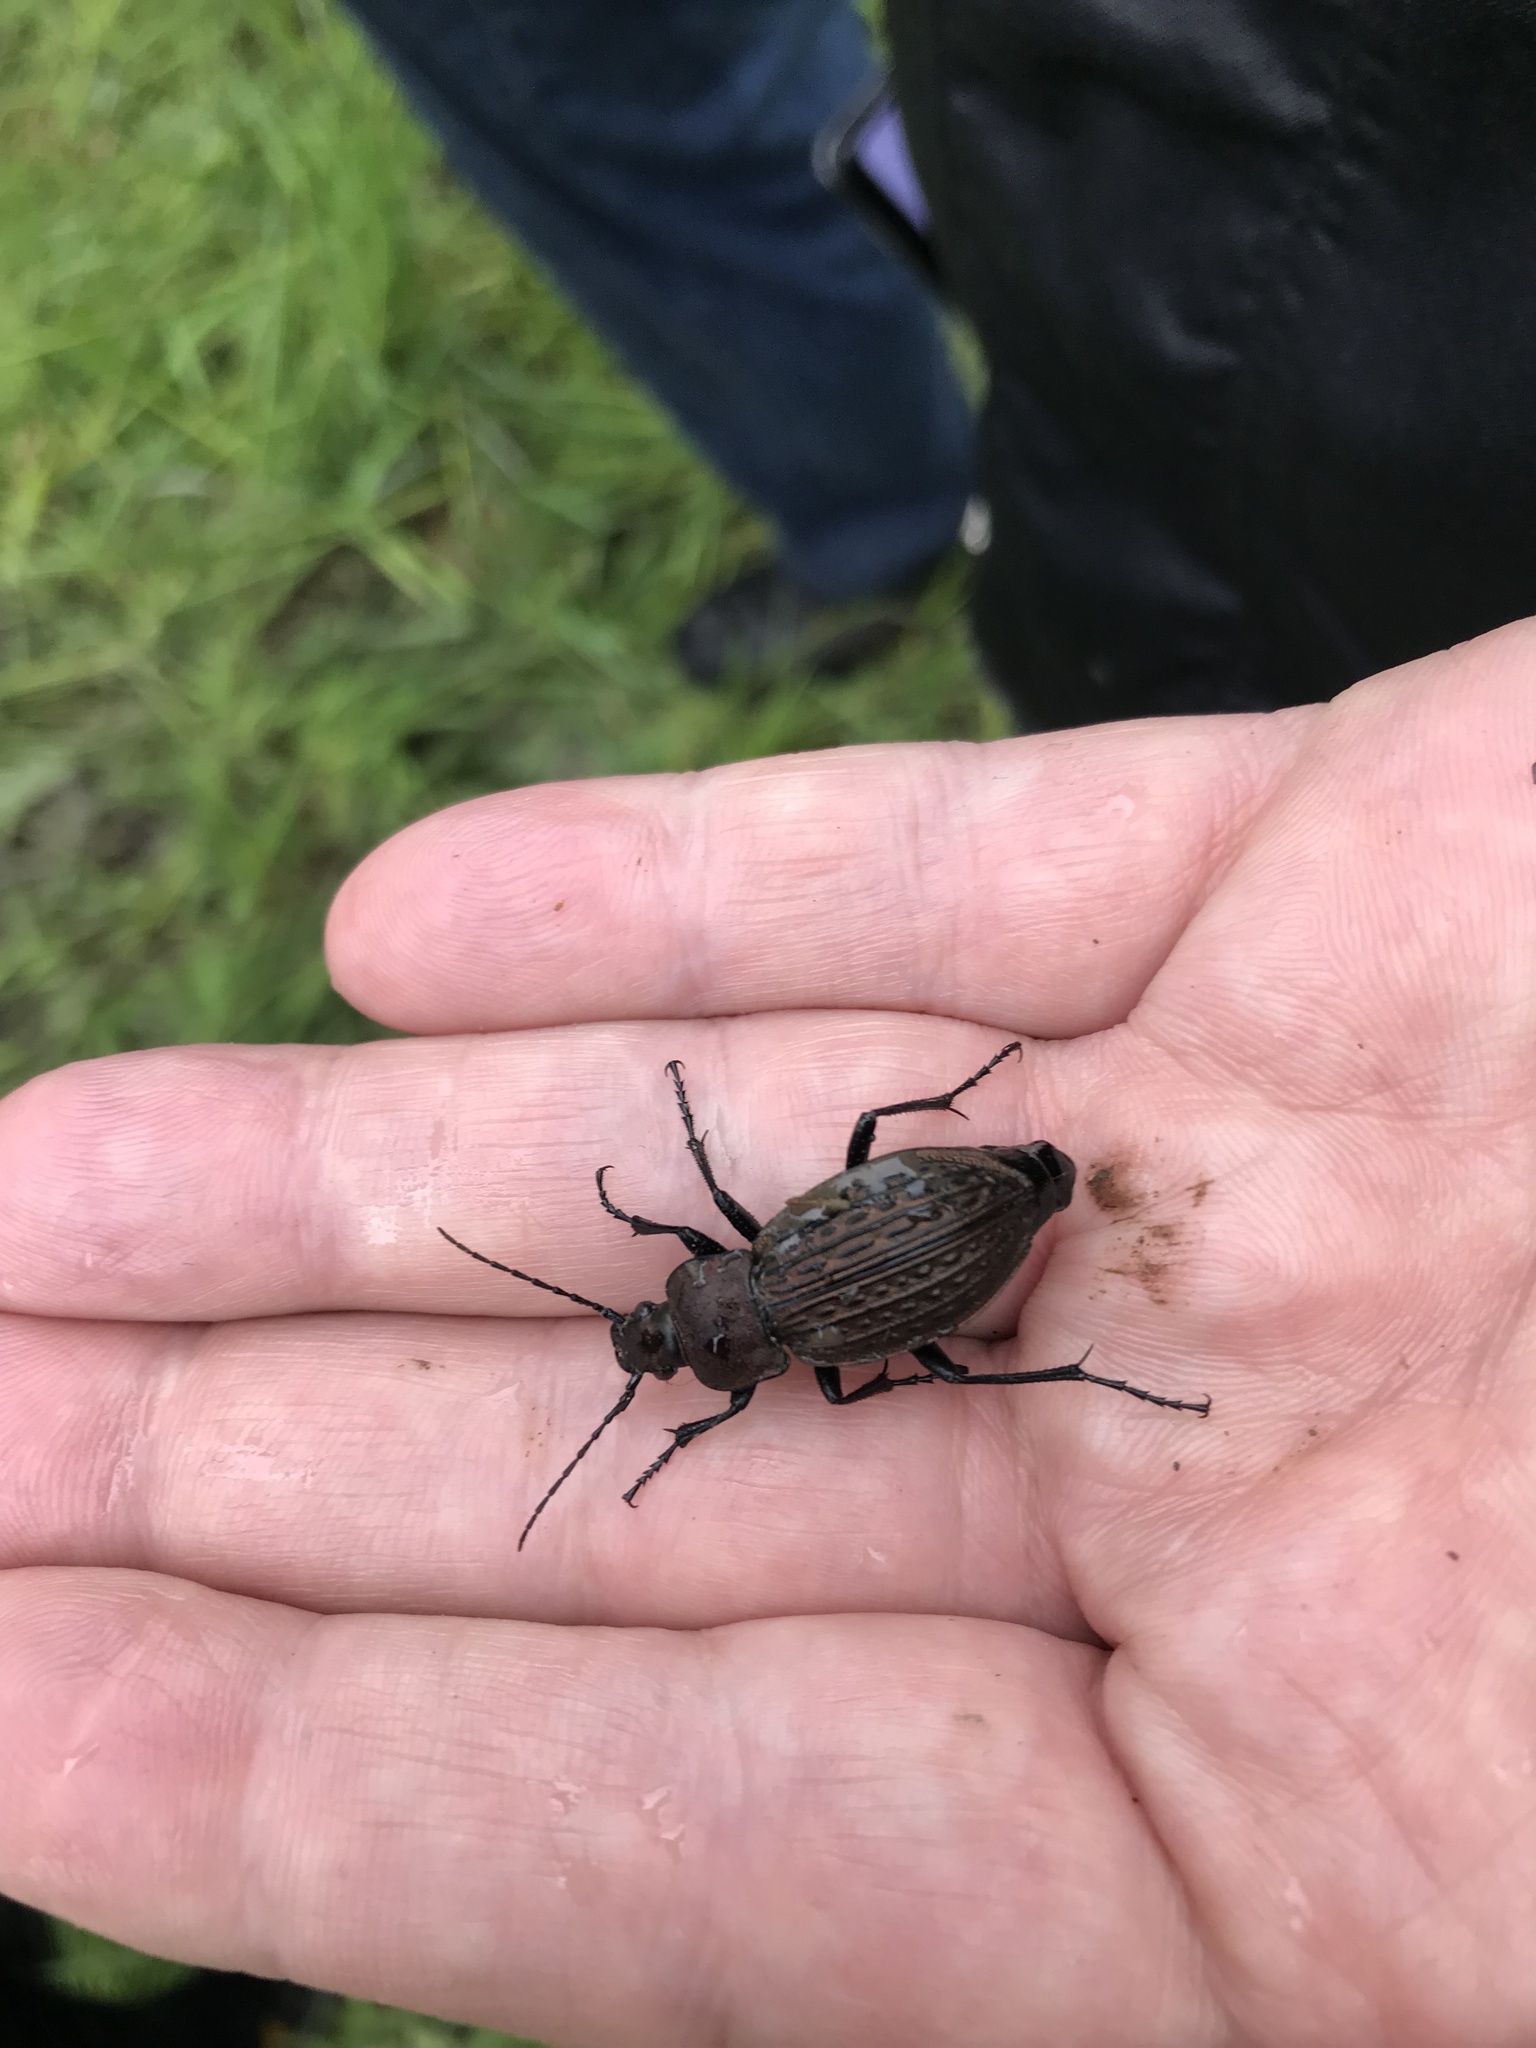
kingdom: Animalia
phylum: Arthropoda
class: Insecta
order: Coleoptera
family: Carabidae
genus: Carabus
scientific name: Carabus ulrichii
